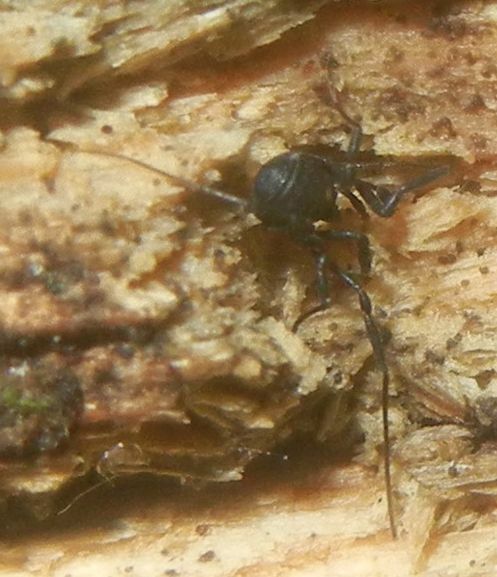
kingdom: Animalia
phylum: Arthropoda
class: Arachnida
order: Opiliones
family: Nemastomatidae
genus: Nemastoma
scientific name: Nemastoma bimaculatum
